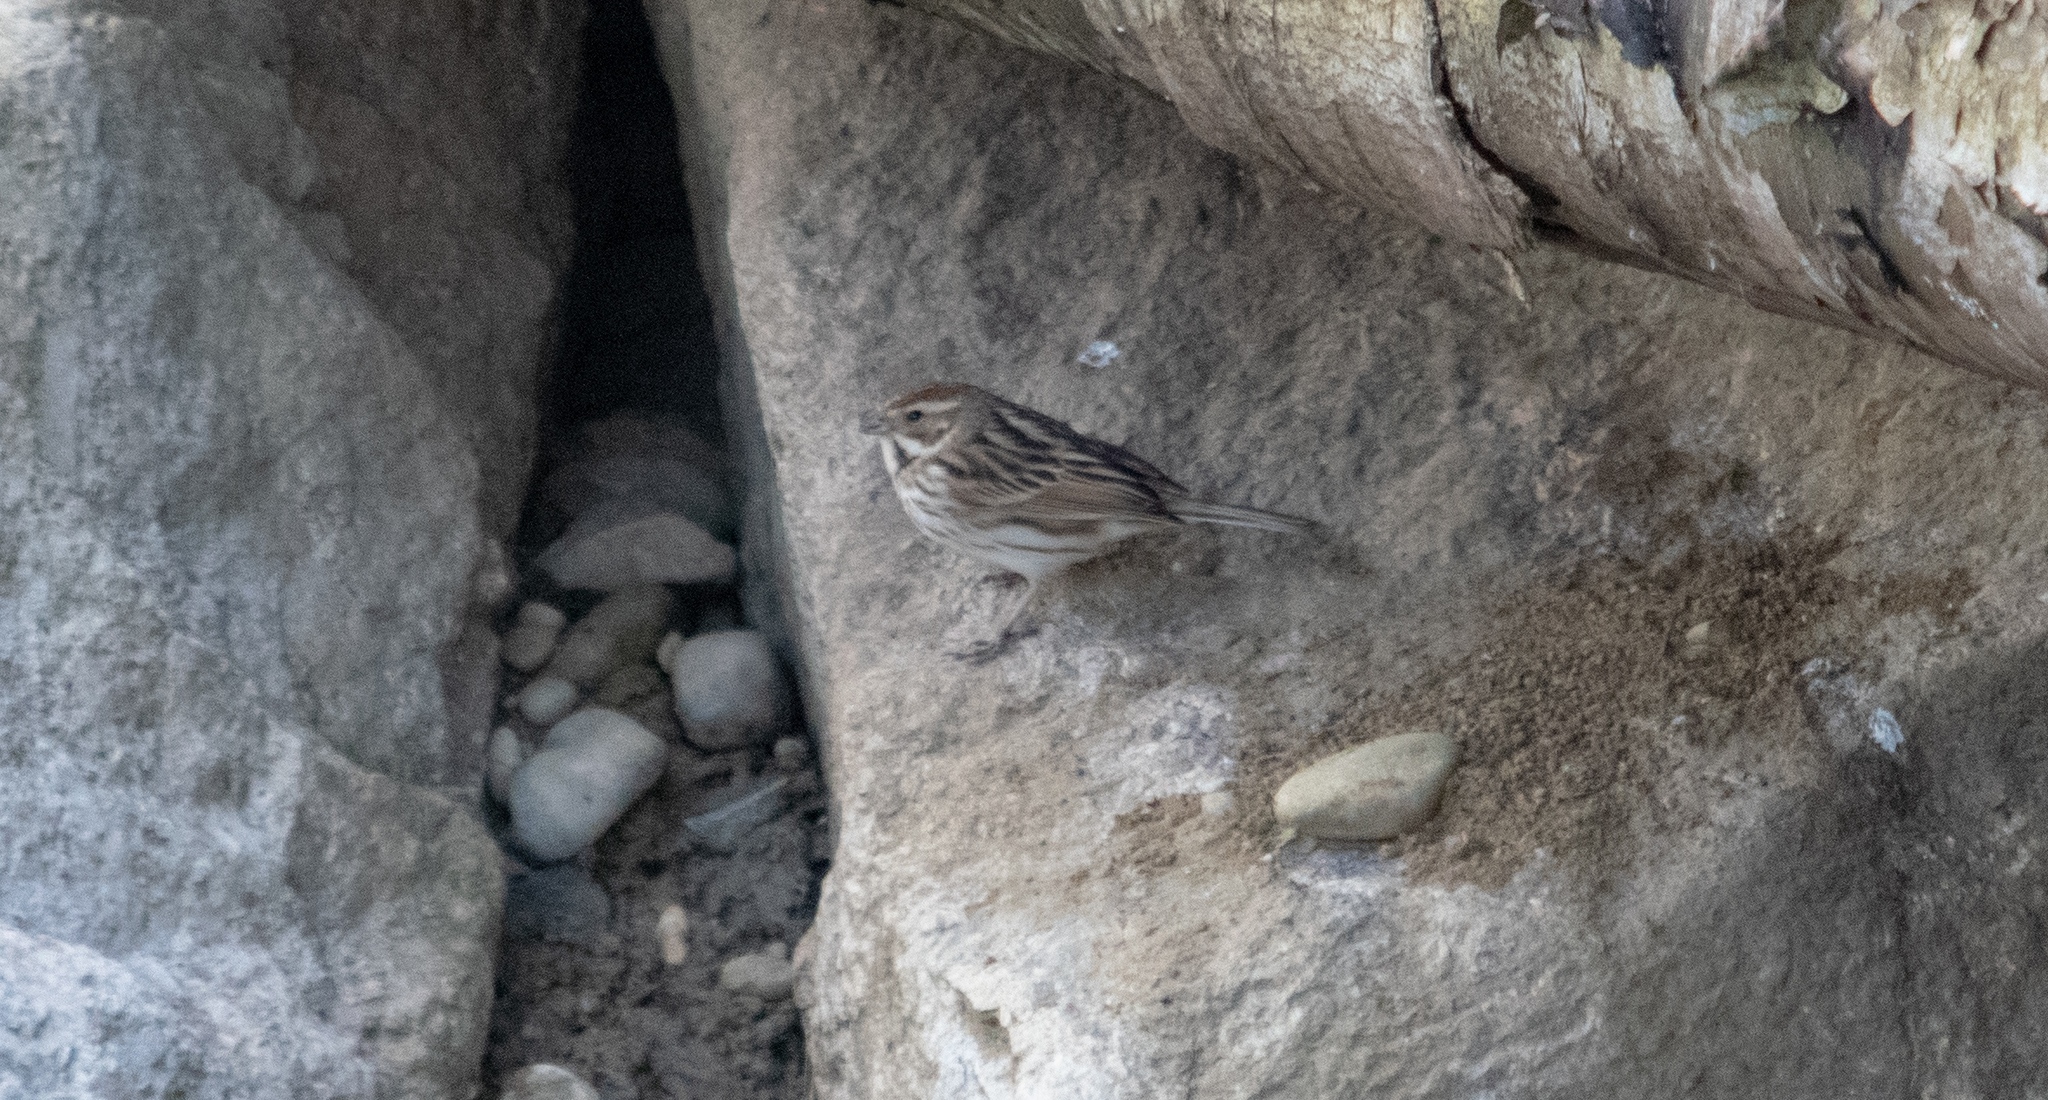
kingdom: Animalia
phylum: Chordata
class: Aves
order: Passeriformes
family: Emberizidae
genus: Emberiza
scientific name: Emberiza schoeniclus
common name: Reed bunting
